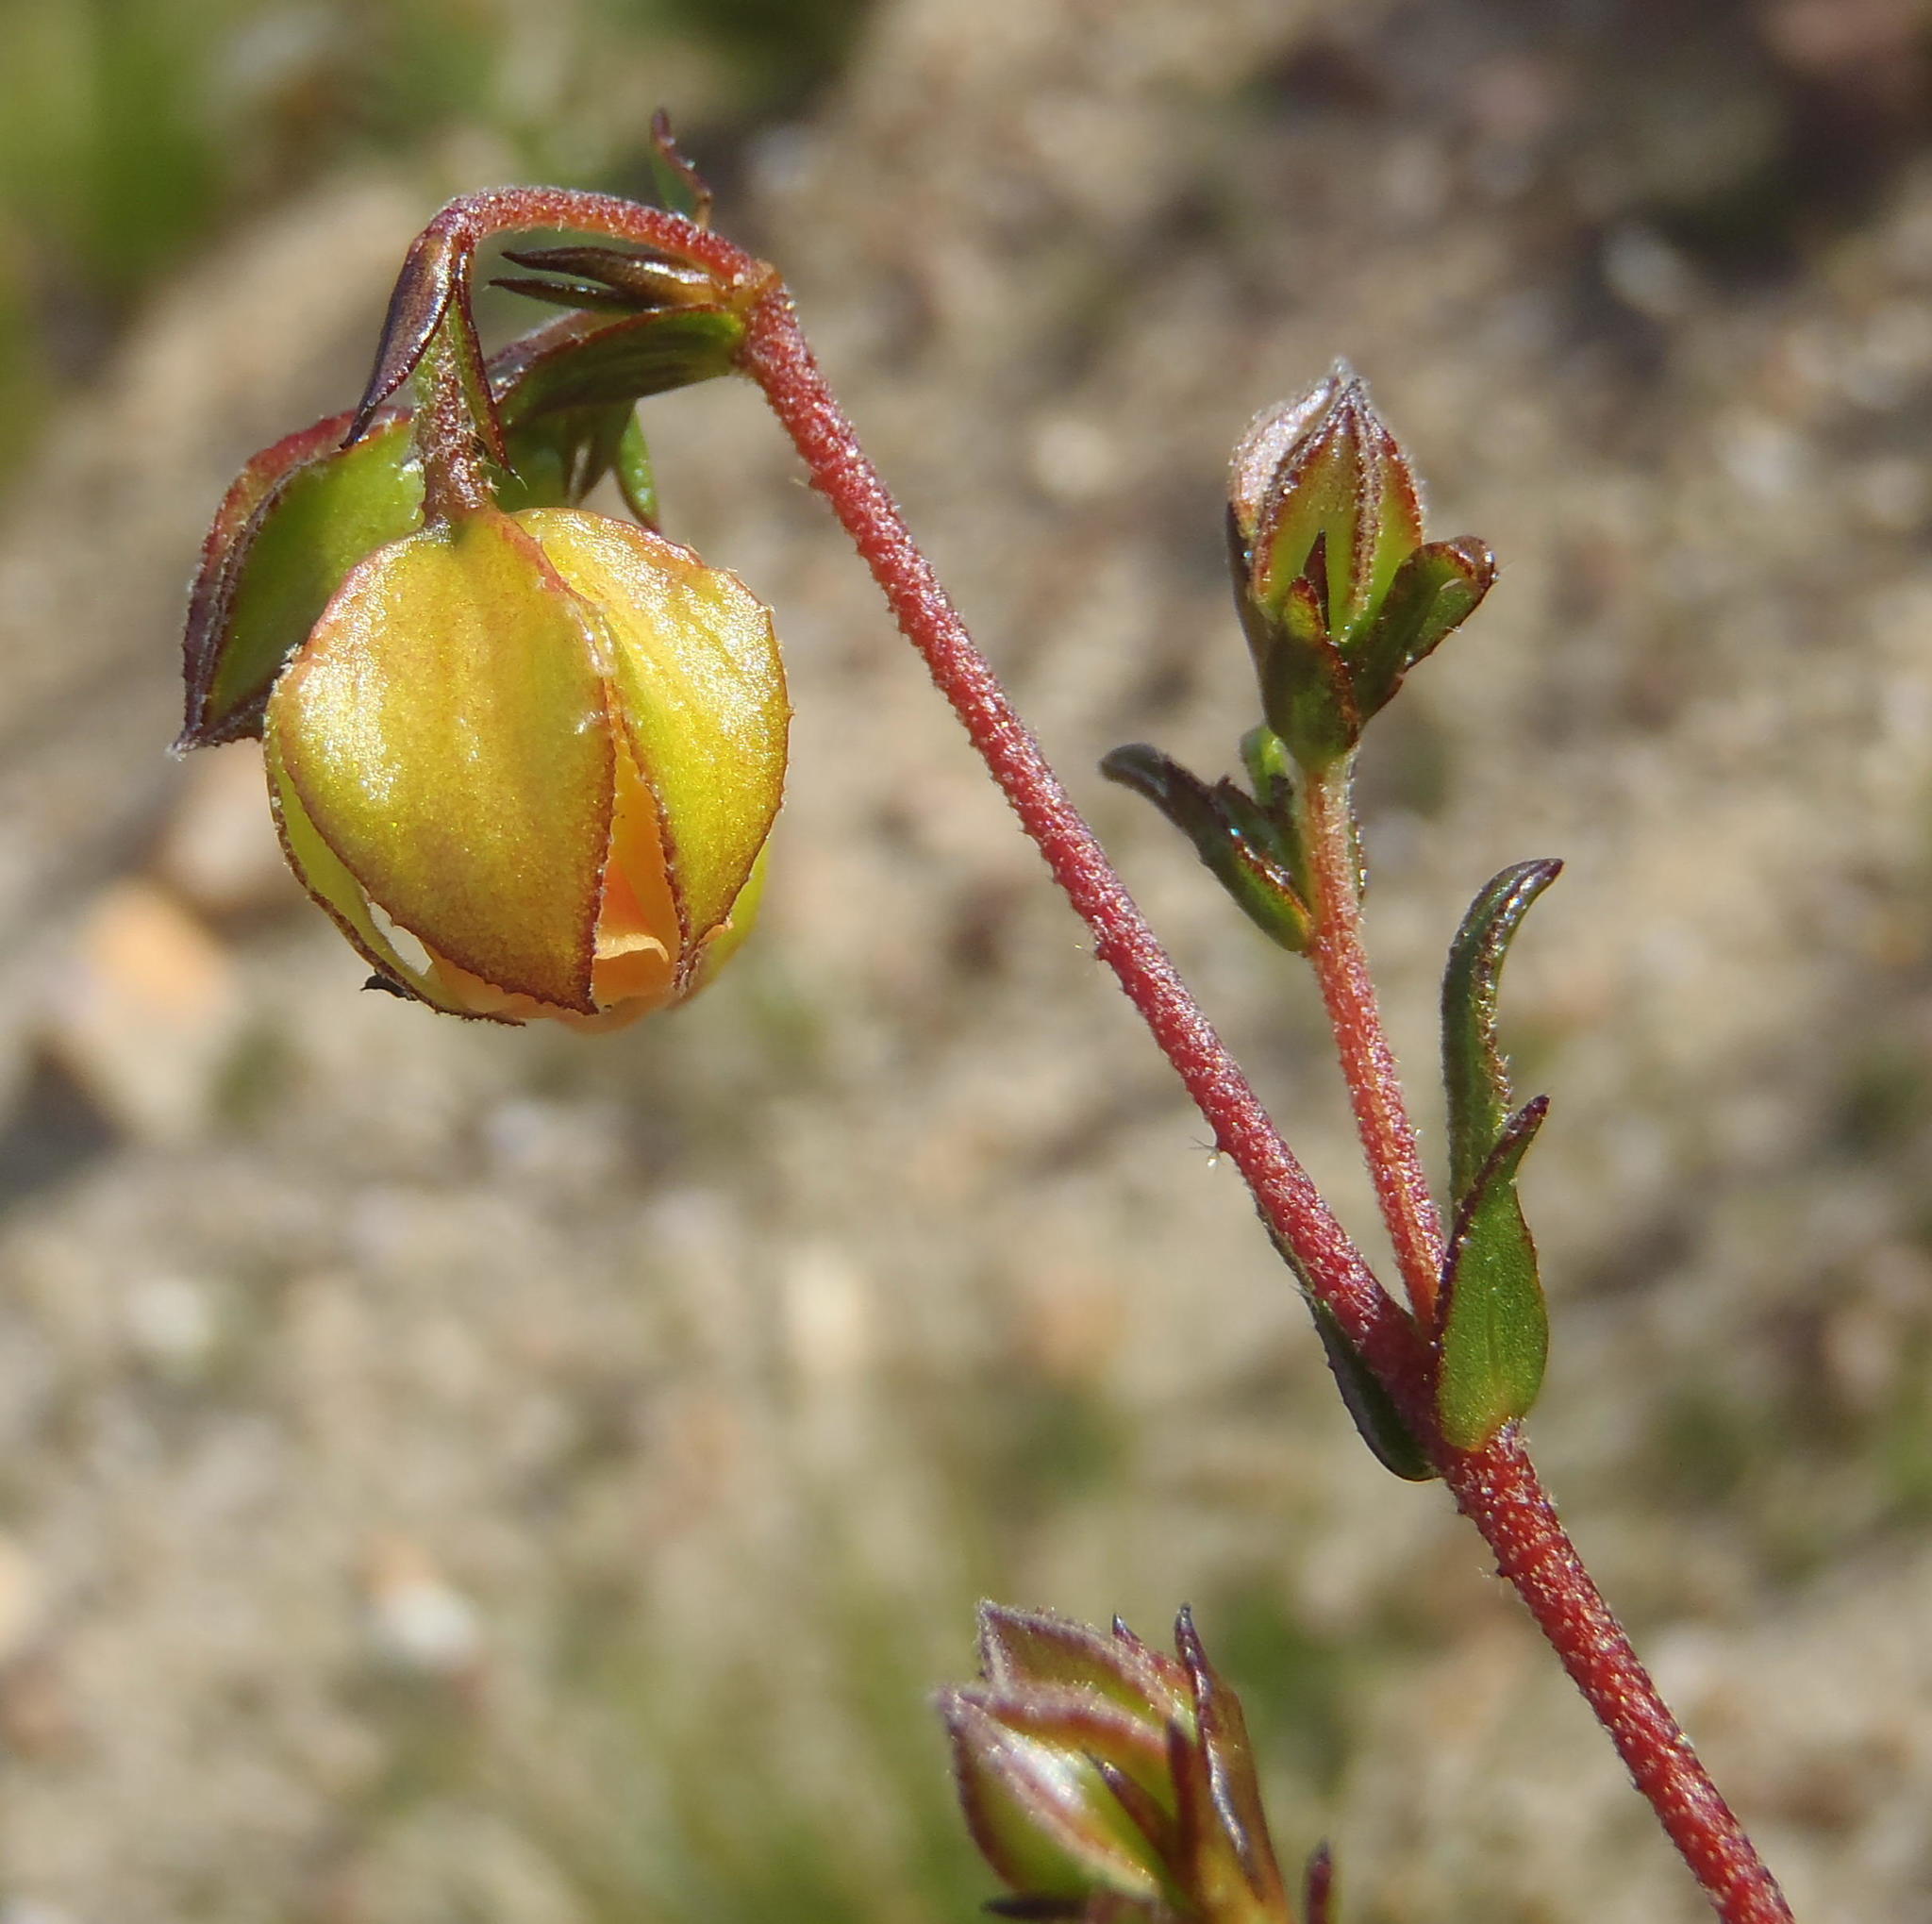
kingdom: Plantae
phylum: Tracheophyta
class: Magnoliopsida
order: Malvales
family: Malvaceae
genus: Hermannia
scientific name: Hermannia angularis
